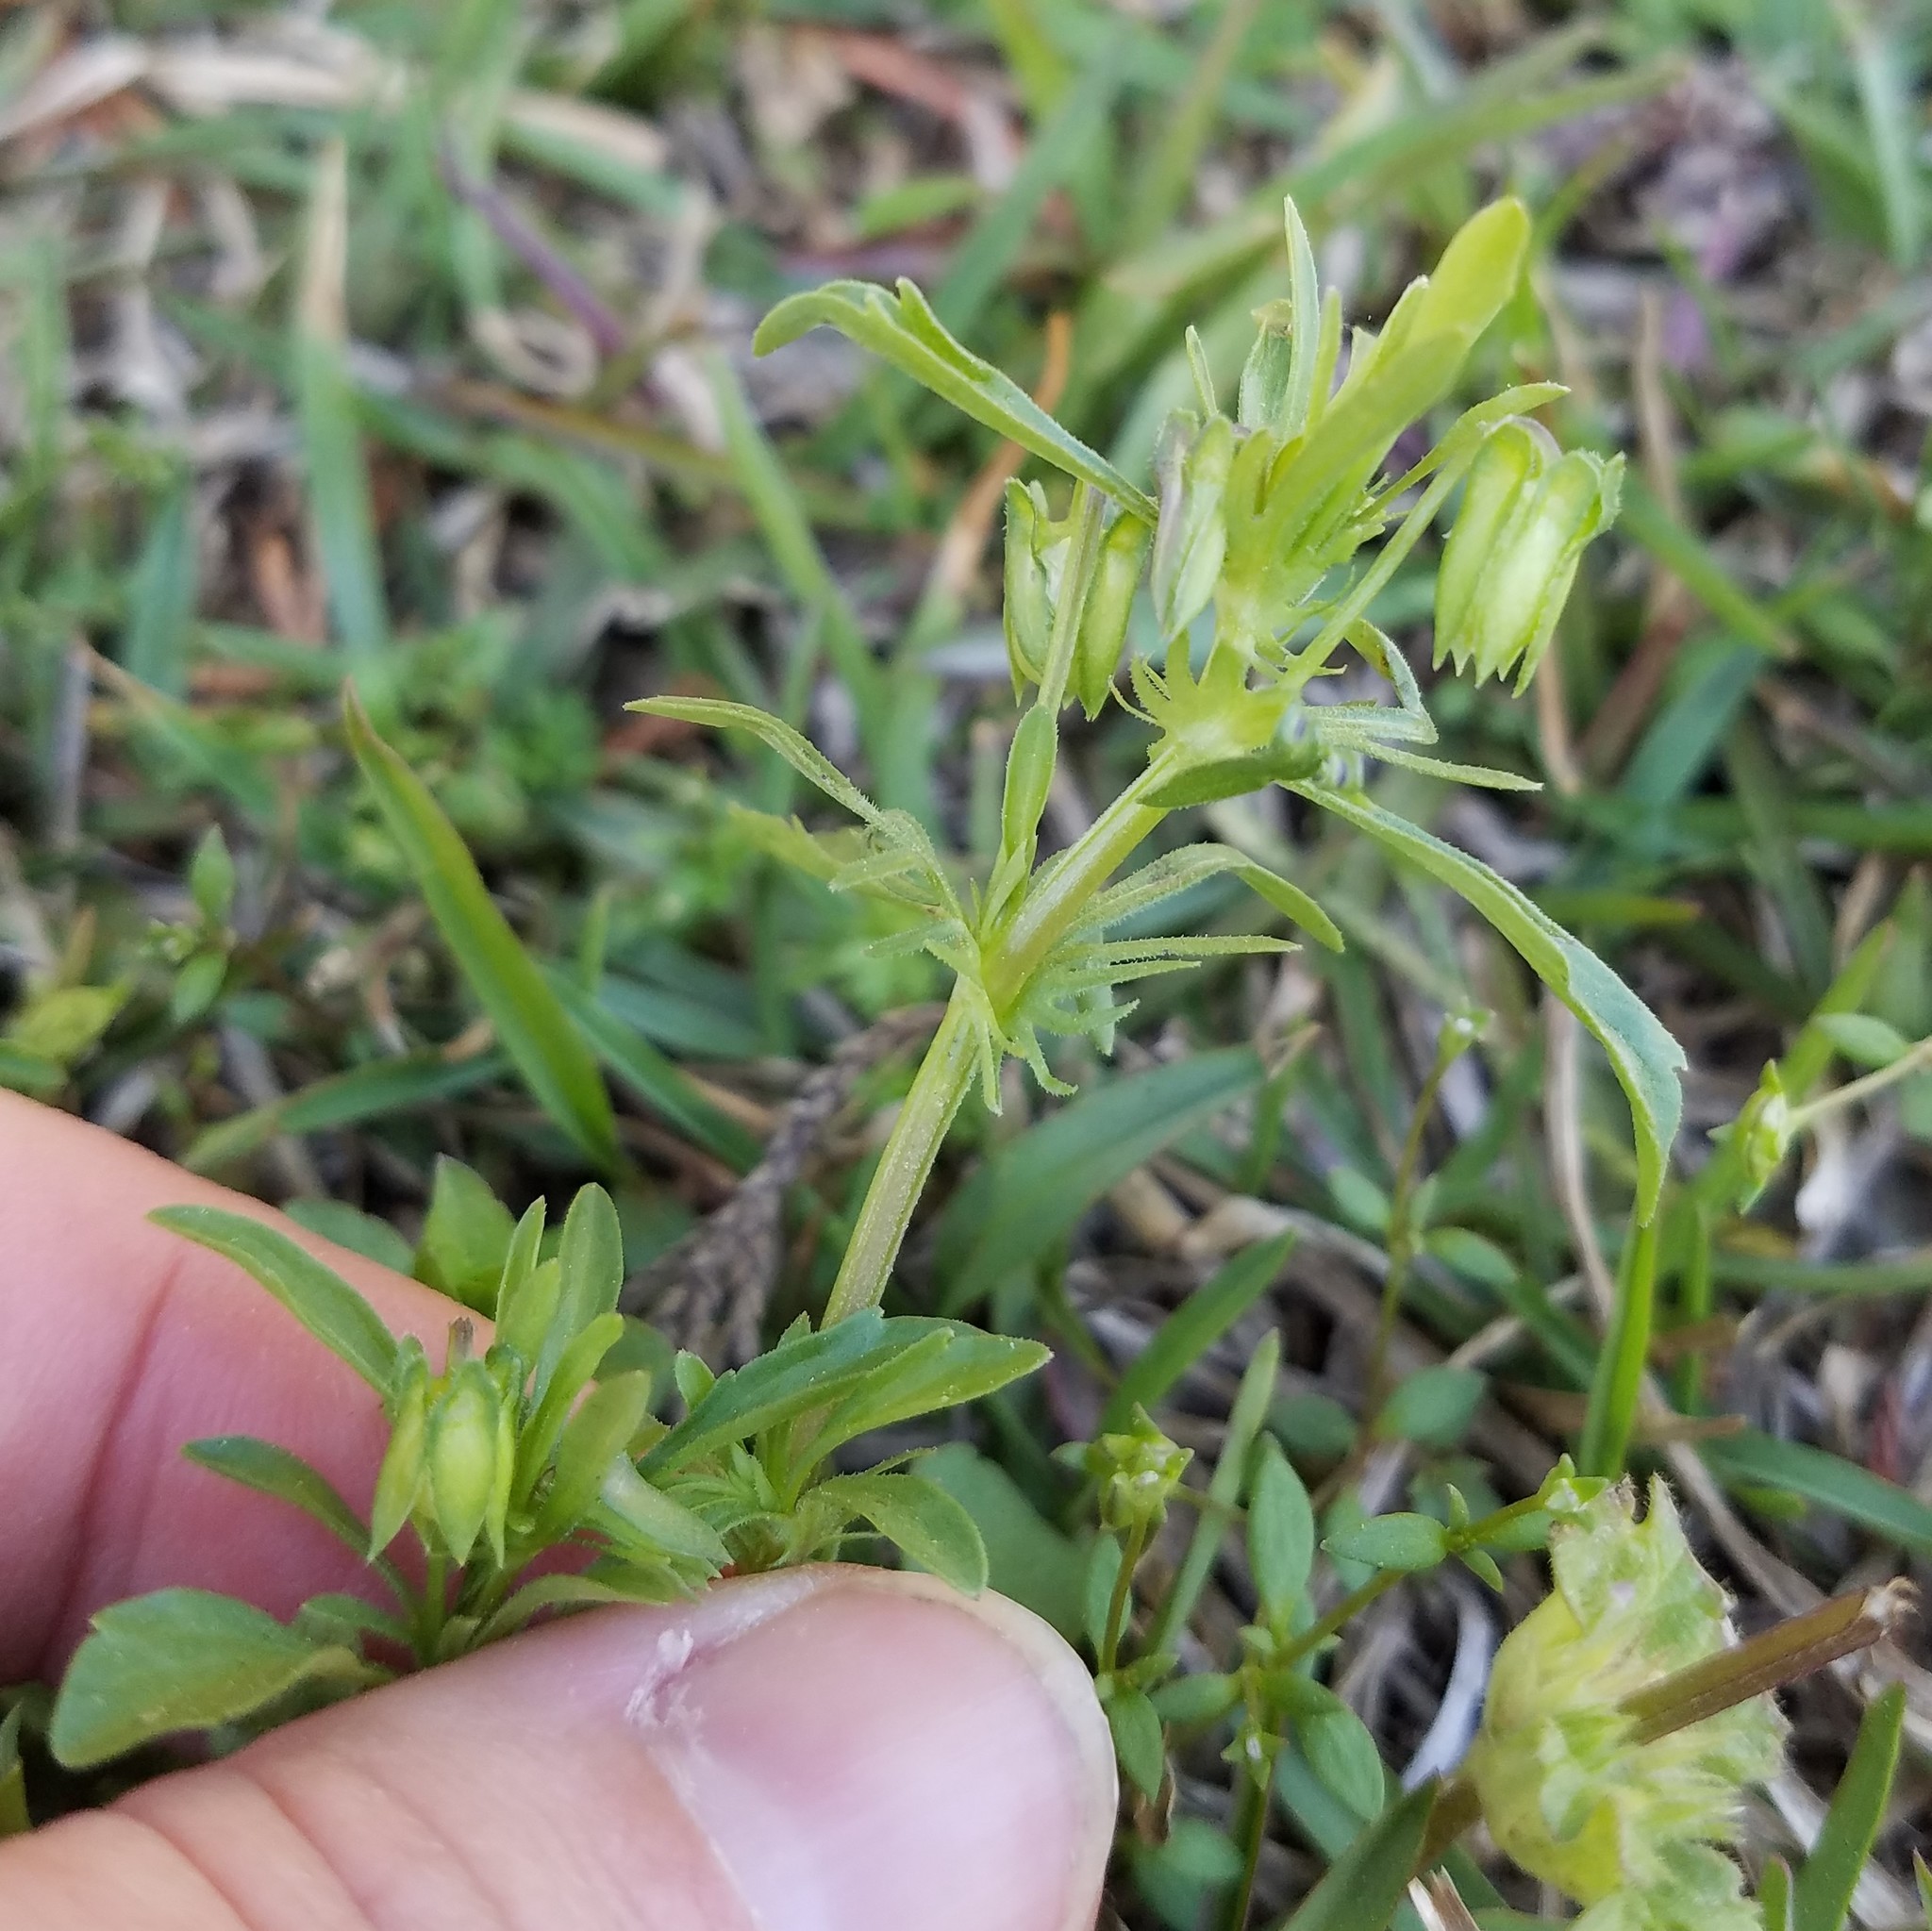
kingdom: Plantae
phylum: Tracheophyta
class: Magnoliopsida
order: Malpighiales
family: Violaceae
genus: Viola
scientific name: Viola rafinesquei
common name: American field pansy
